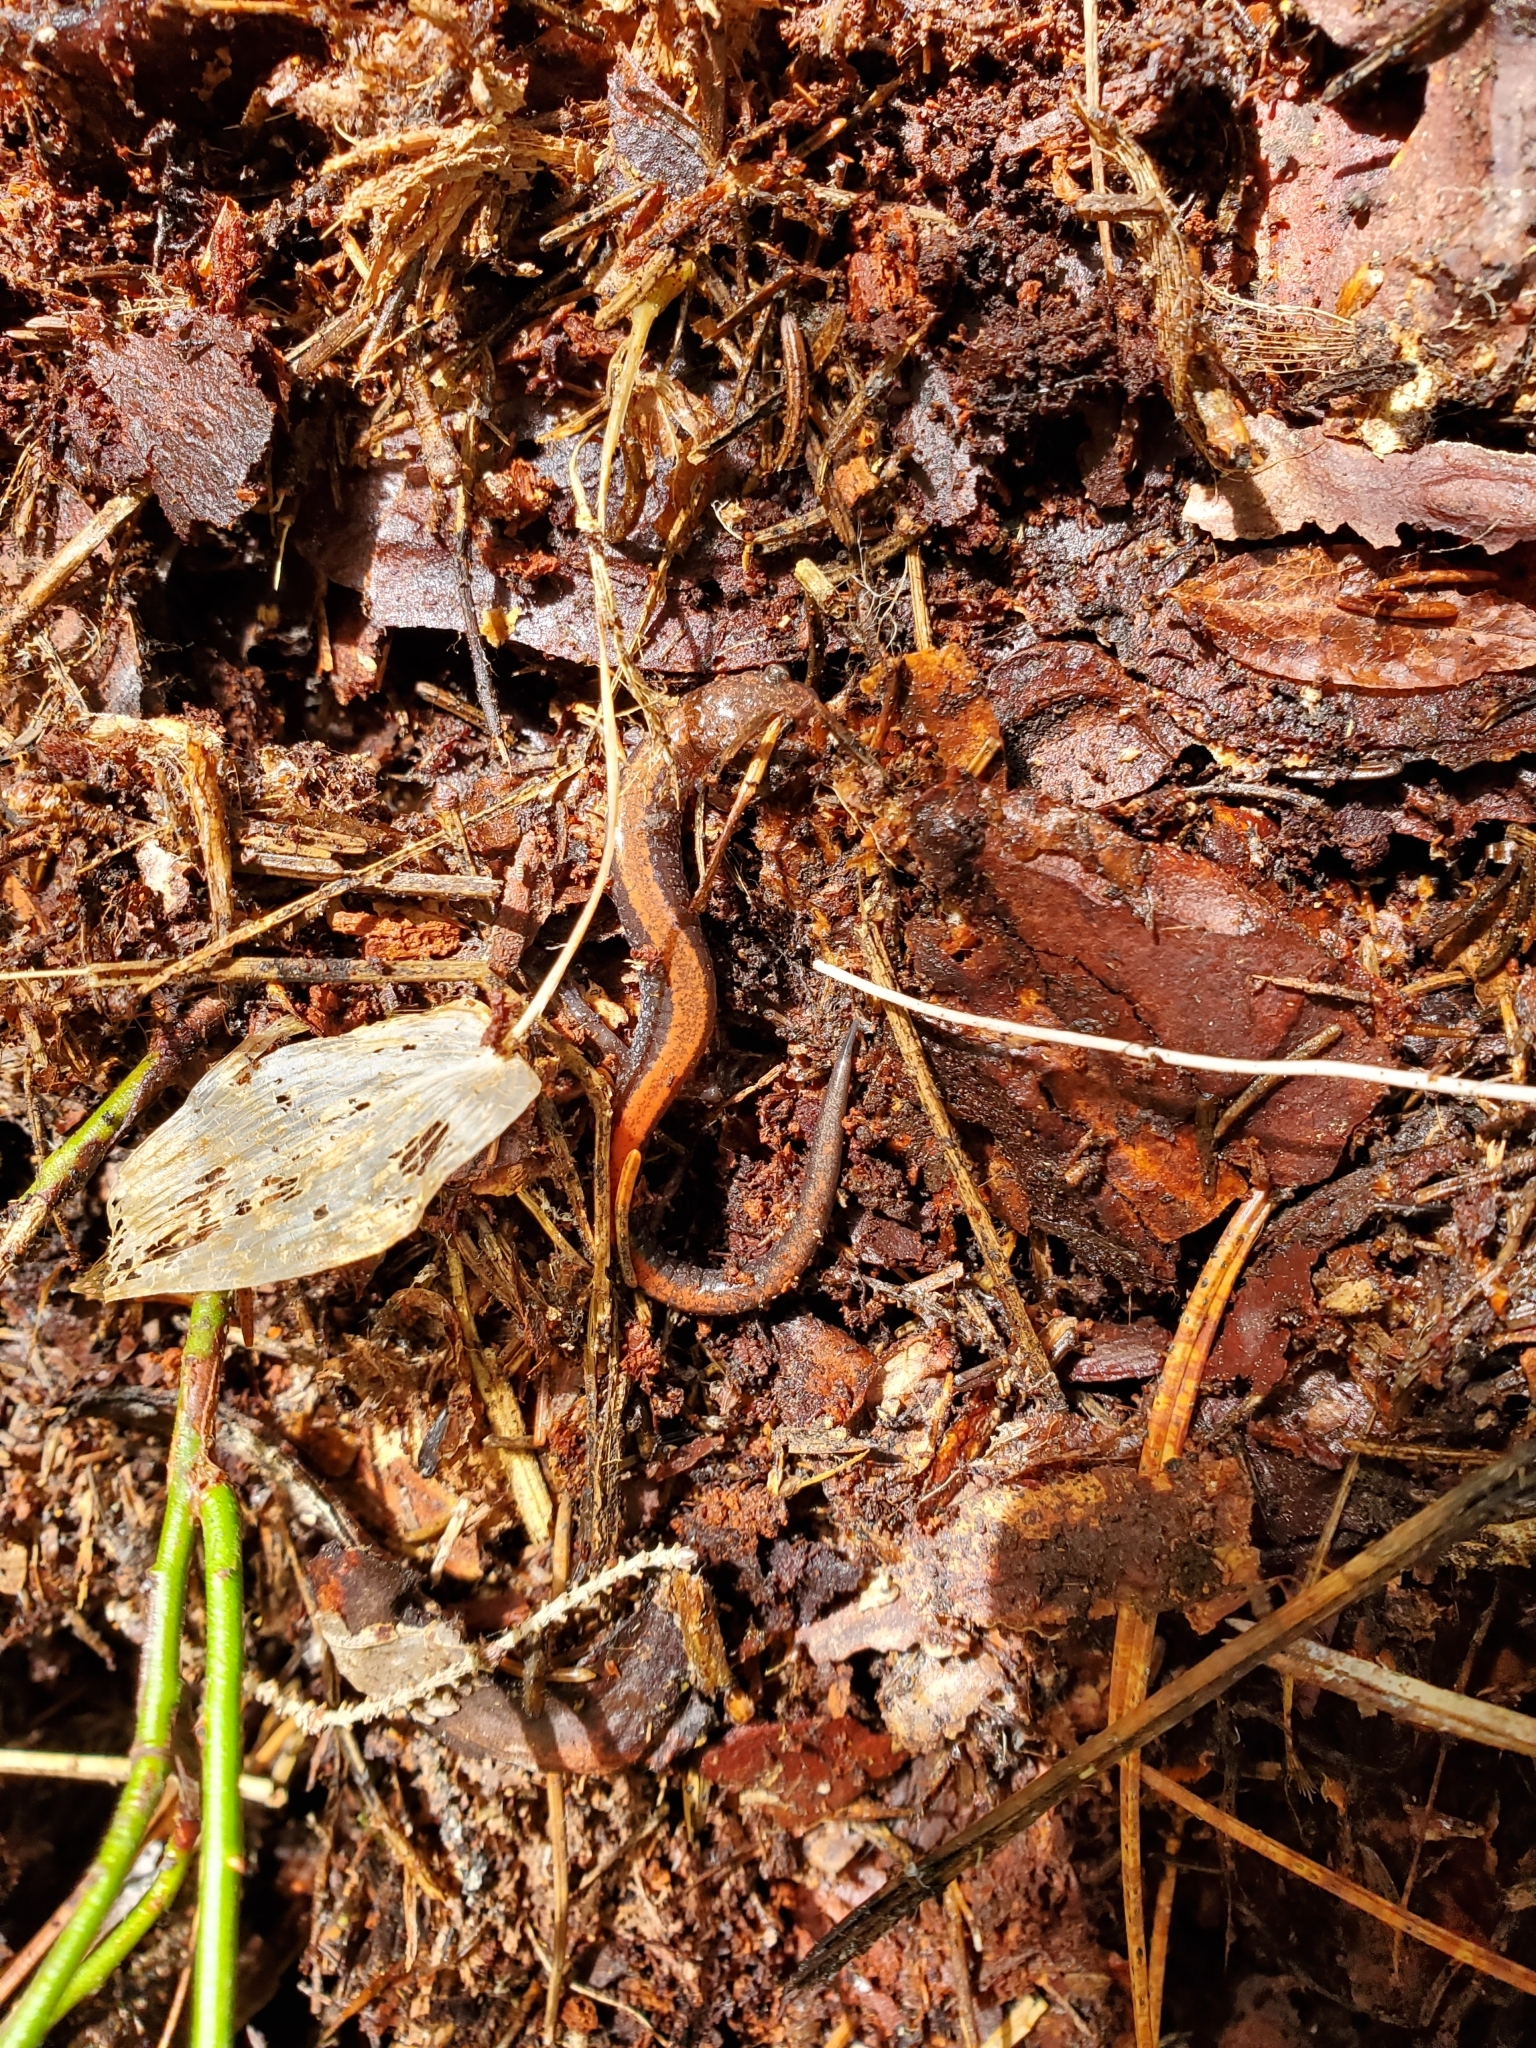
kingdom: Animalia
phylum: Chordata
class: Amphibia
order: Caudata
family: Plethodontidae
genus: Plethodon
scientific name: Plethodon cinereus
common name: Redback salamander
